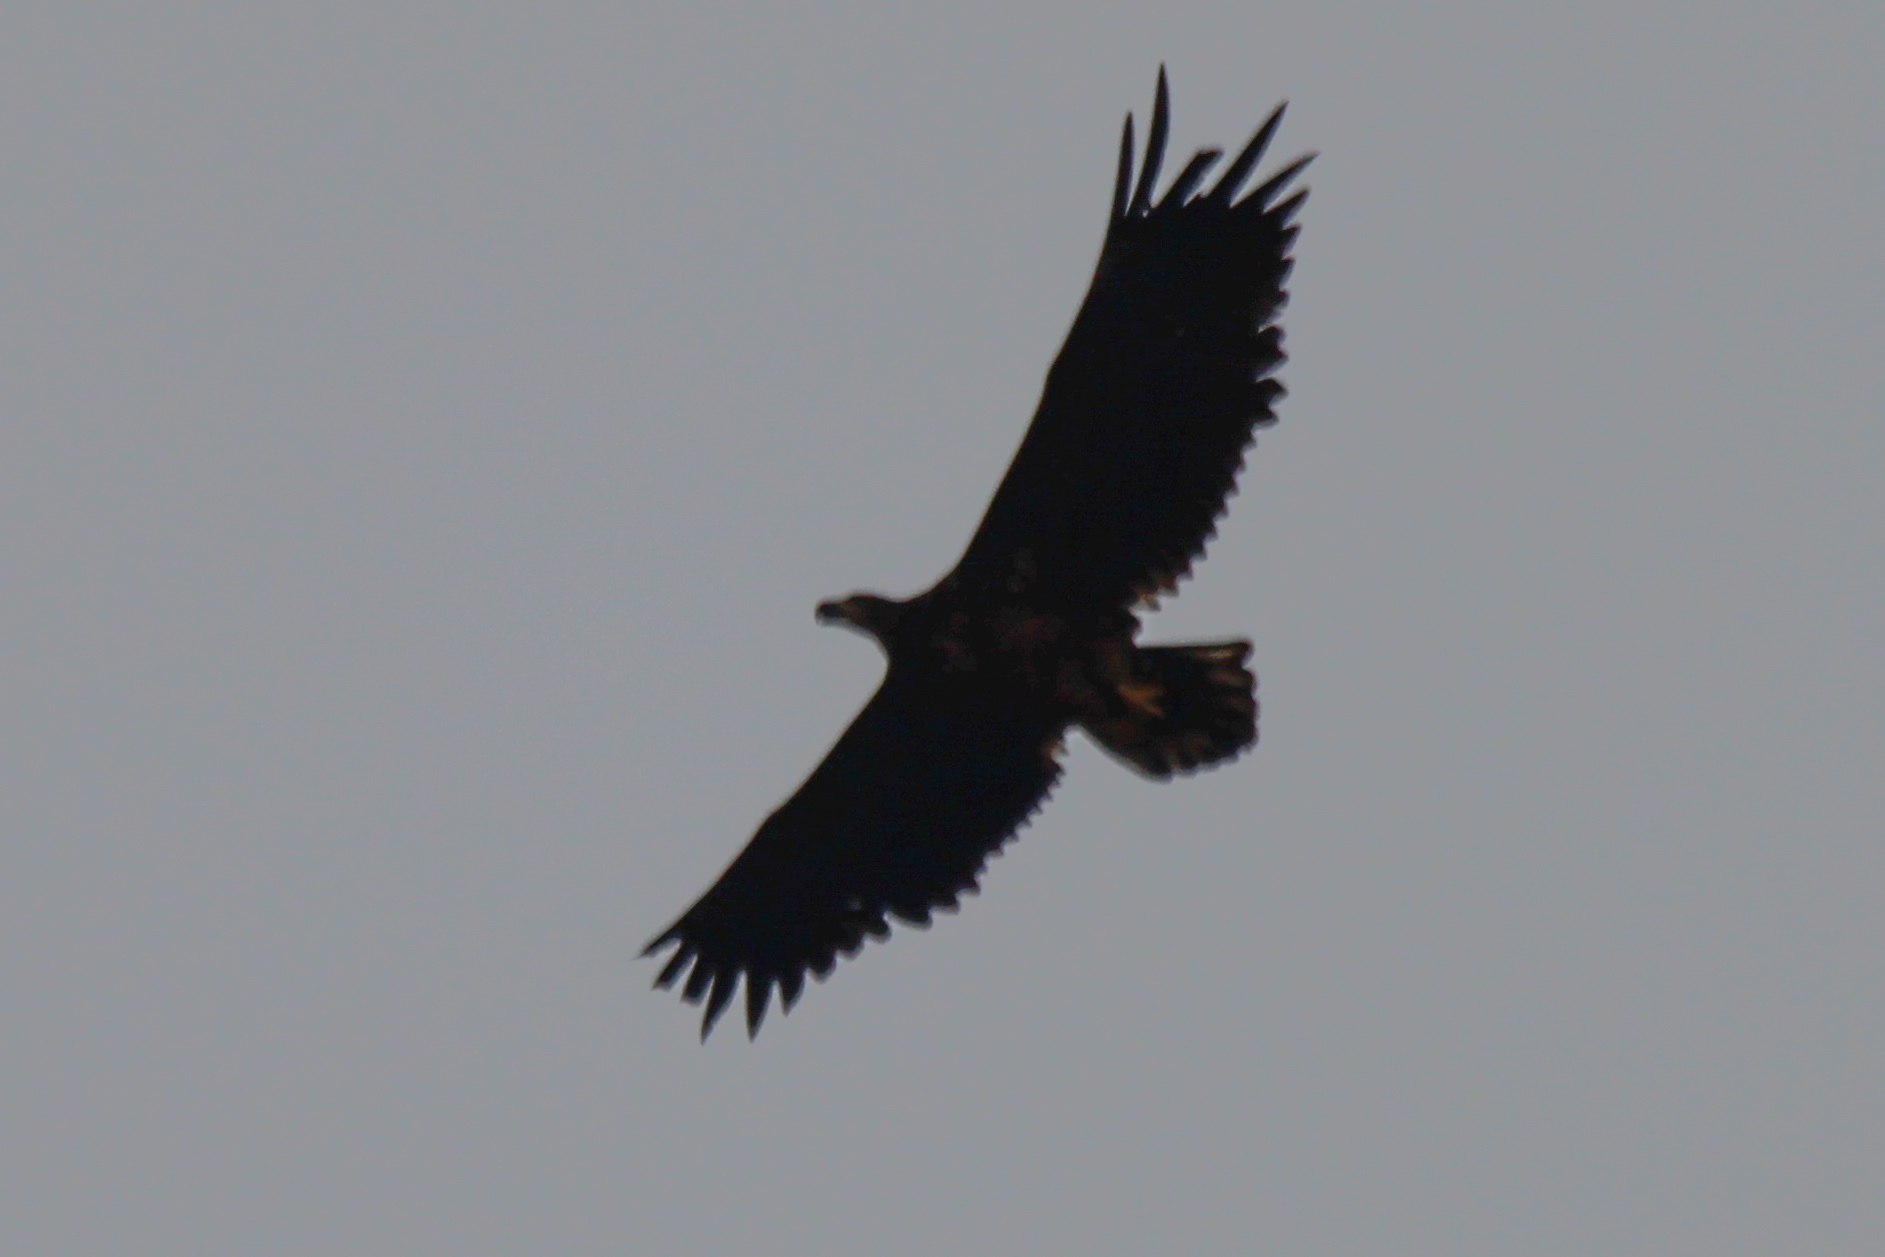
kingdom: Animalia
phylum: Chordata
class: Aves
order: Accipitriformes
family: Accipitridae
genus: Haliaeetus
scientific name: Haliaeetus albicilla
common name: White-tailed eagle
